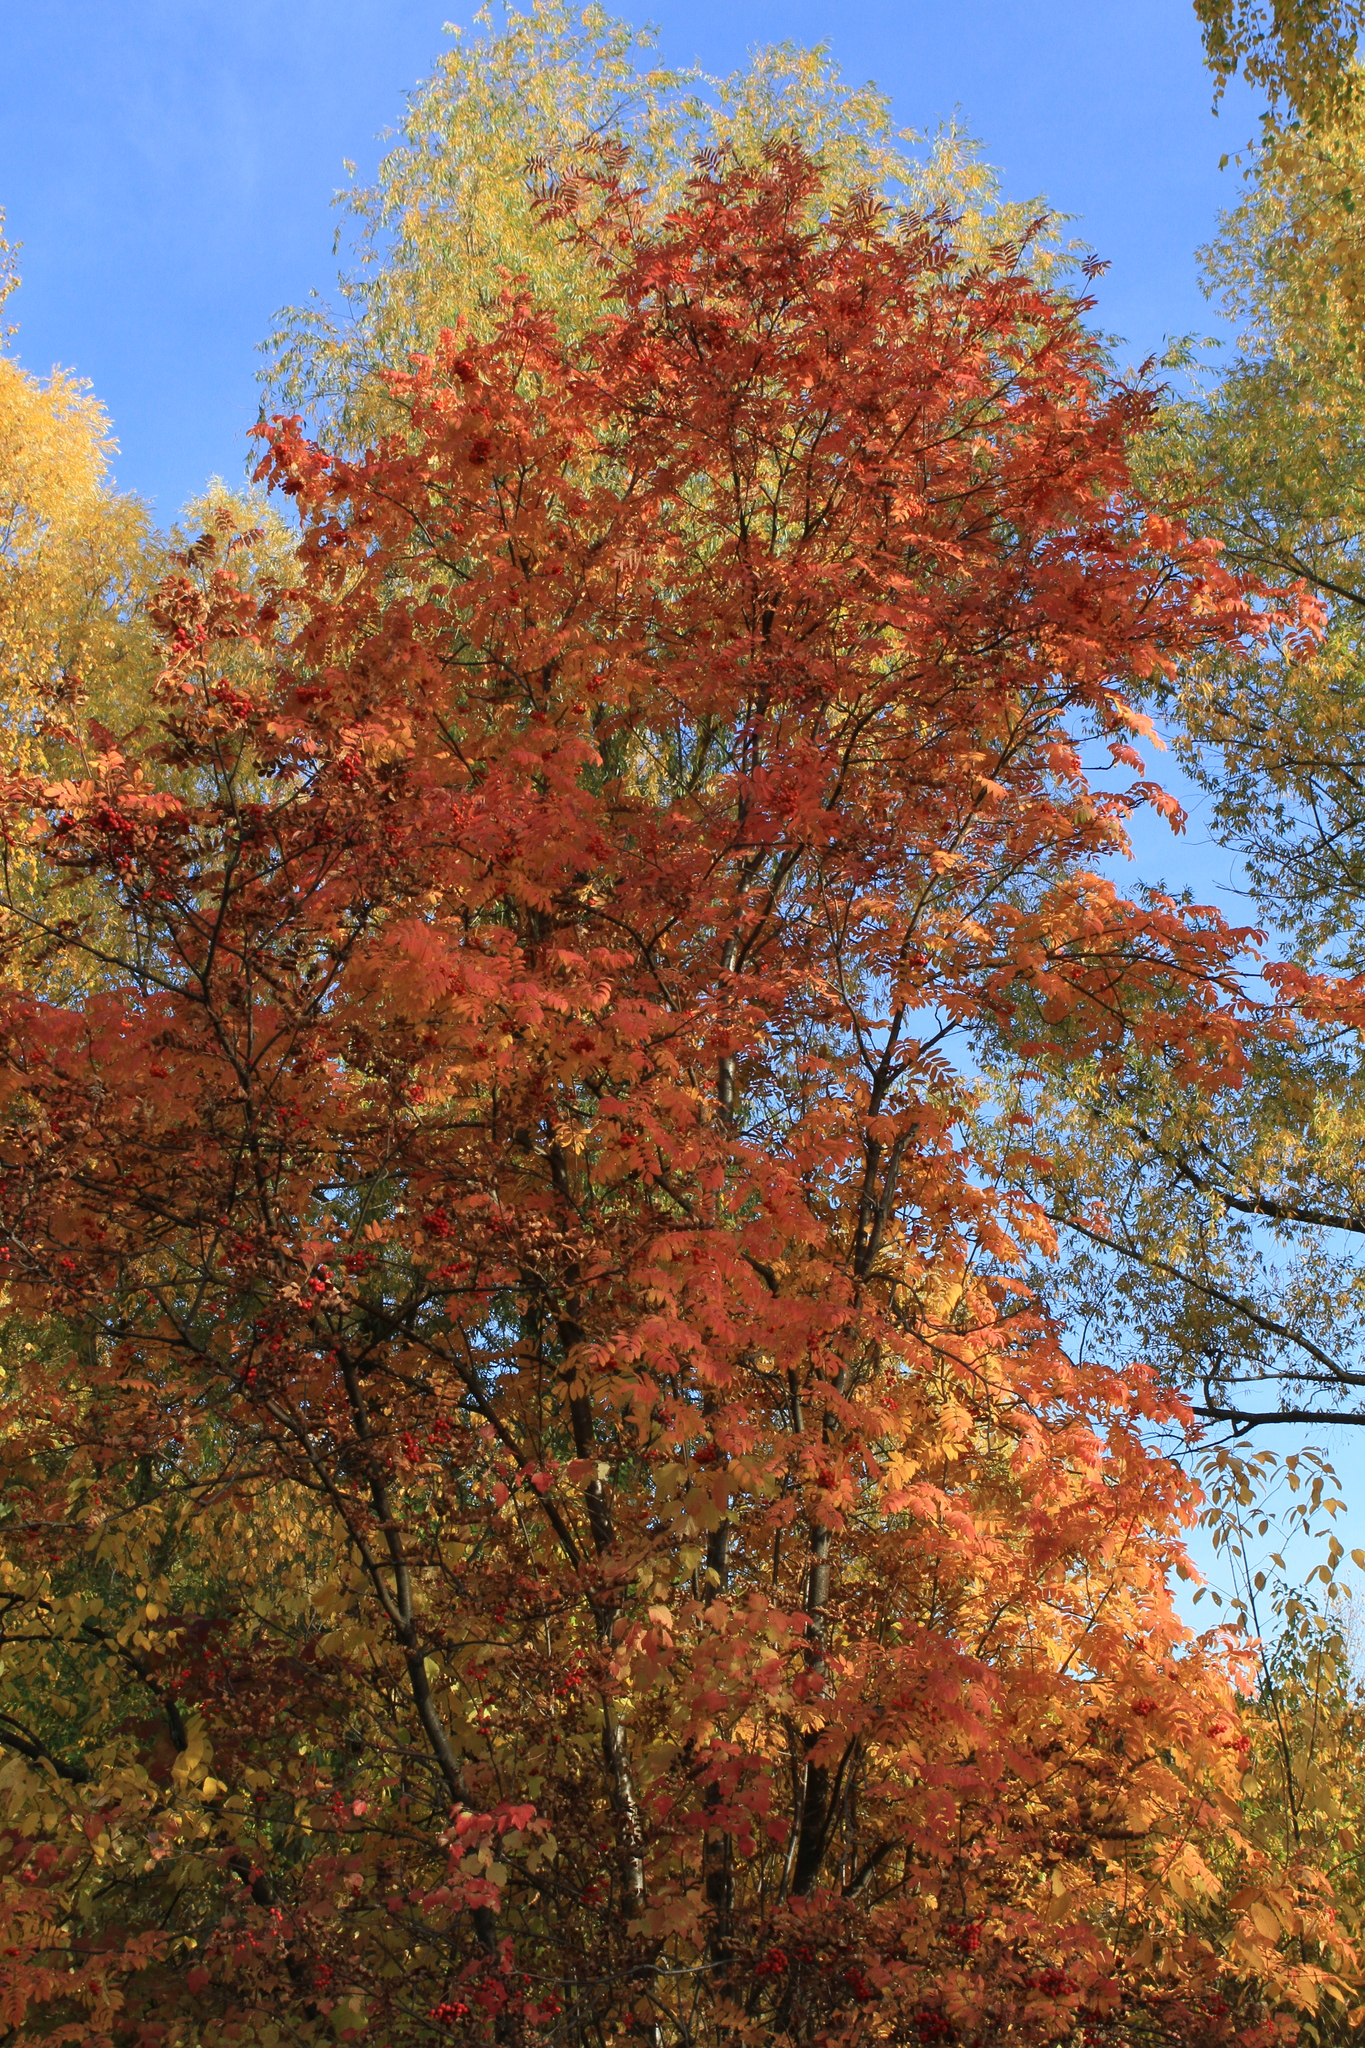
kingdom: Plantae
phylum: Tracheophyta
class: Magnoliopsida
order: Rosales
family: Rosaceae
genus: Sorbus
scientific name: Sorbus aucuparia
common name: Rowan
